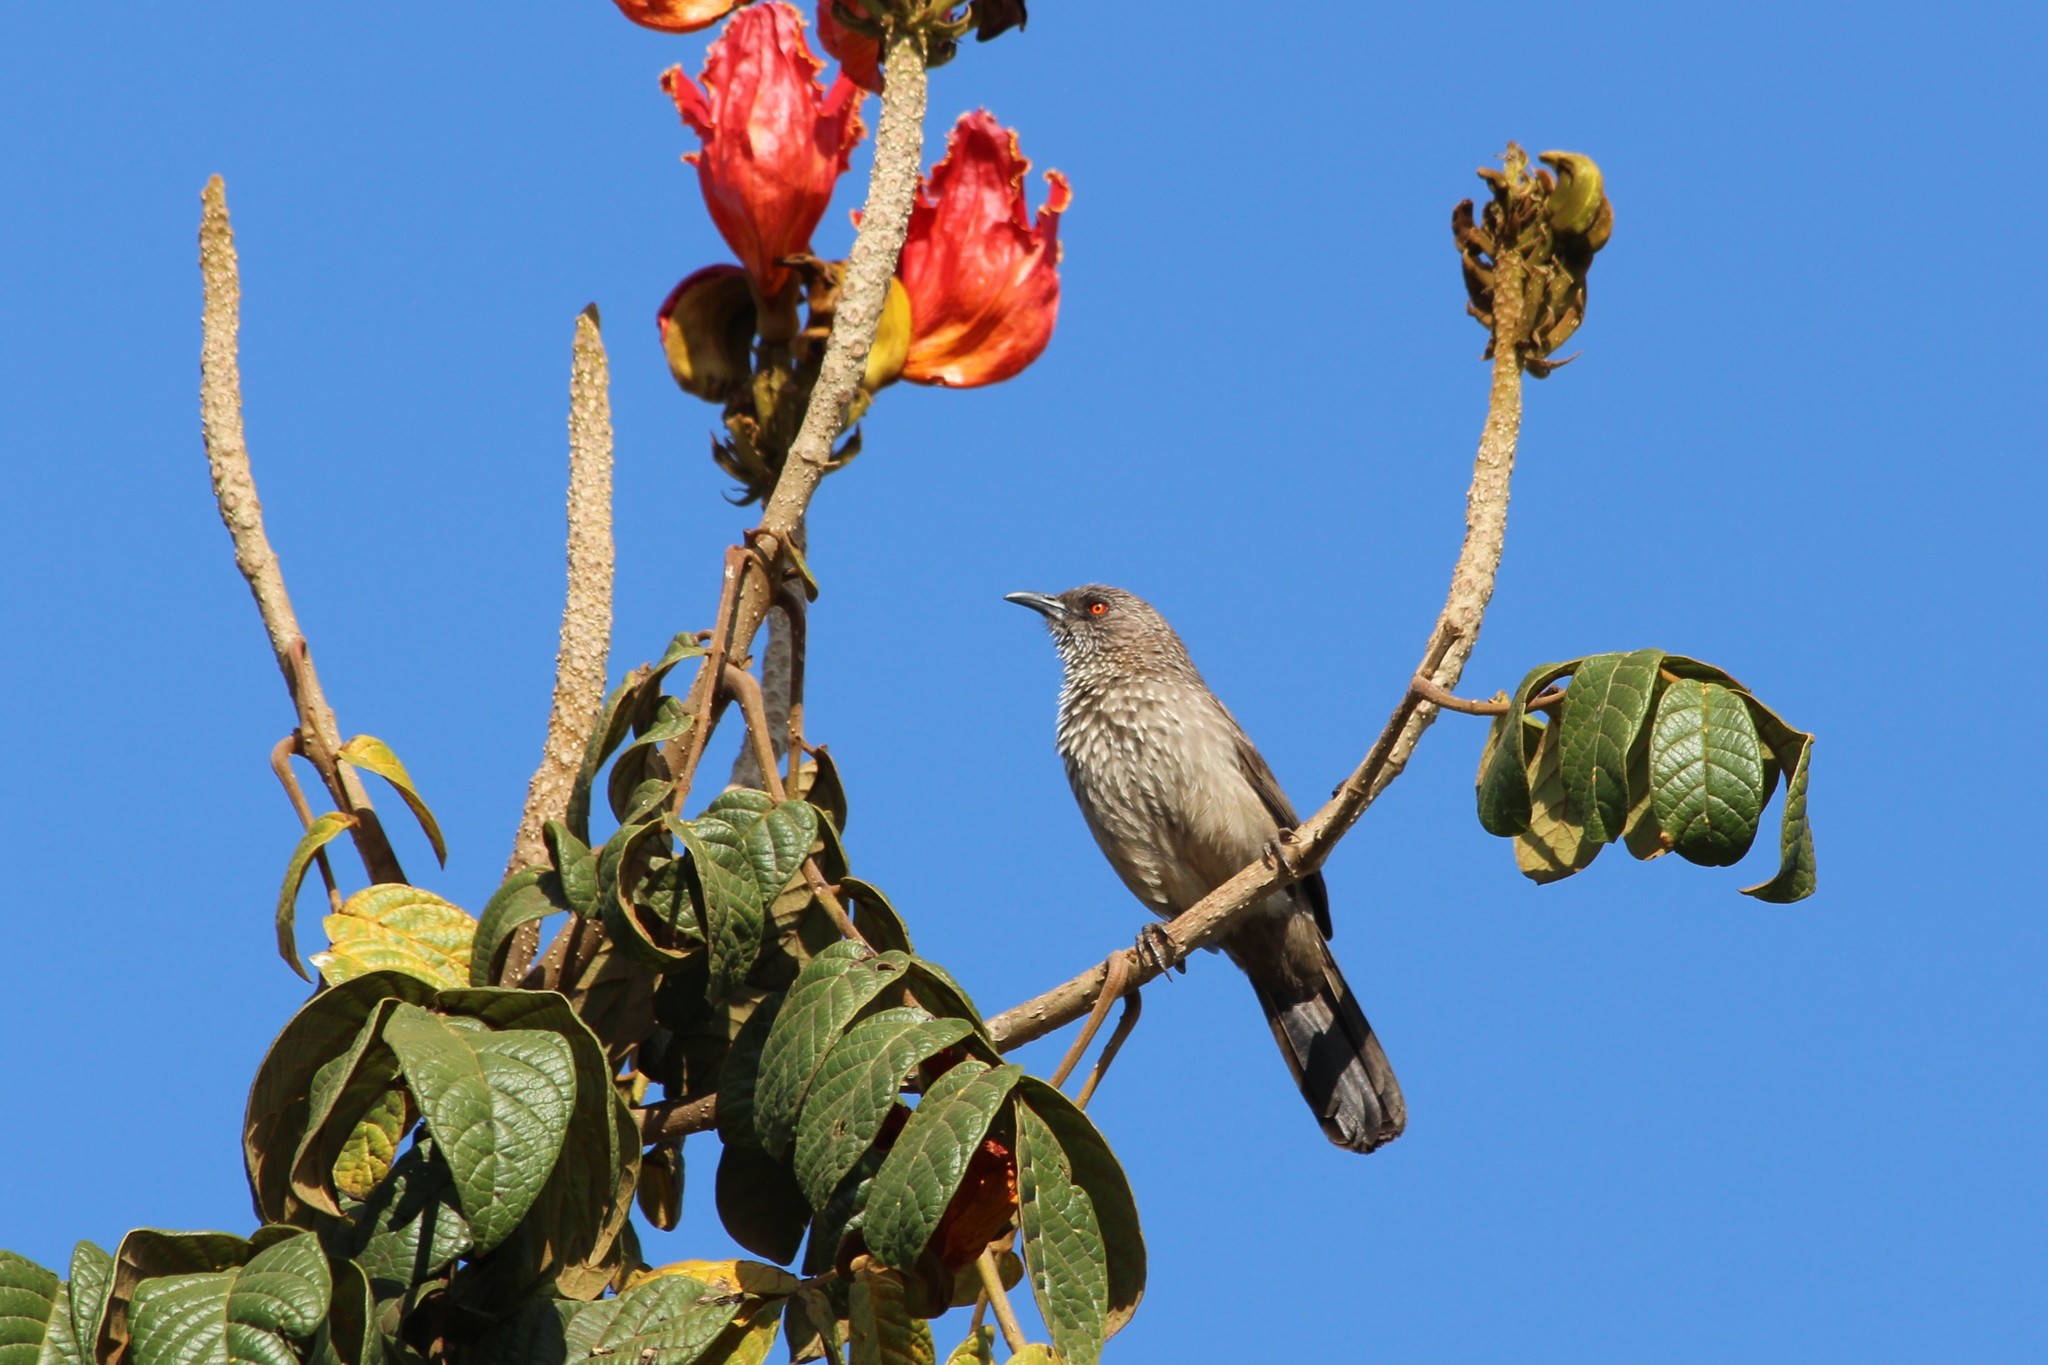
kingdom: Animalia
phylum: Chordata
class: Aves
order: Passeriformes
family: Leiothrichidae
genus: Turdoides
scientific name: Turdoides jardineii
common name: Arrow-marked babbler
